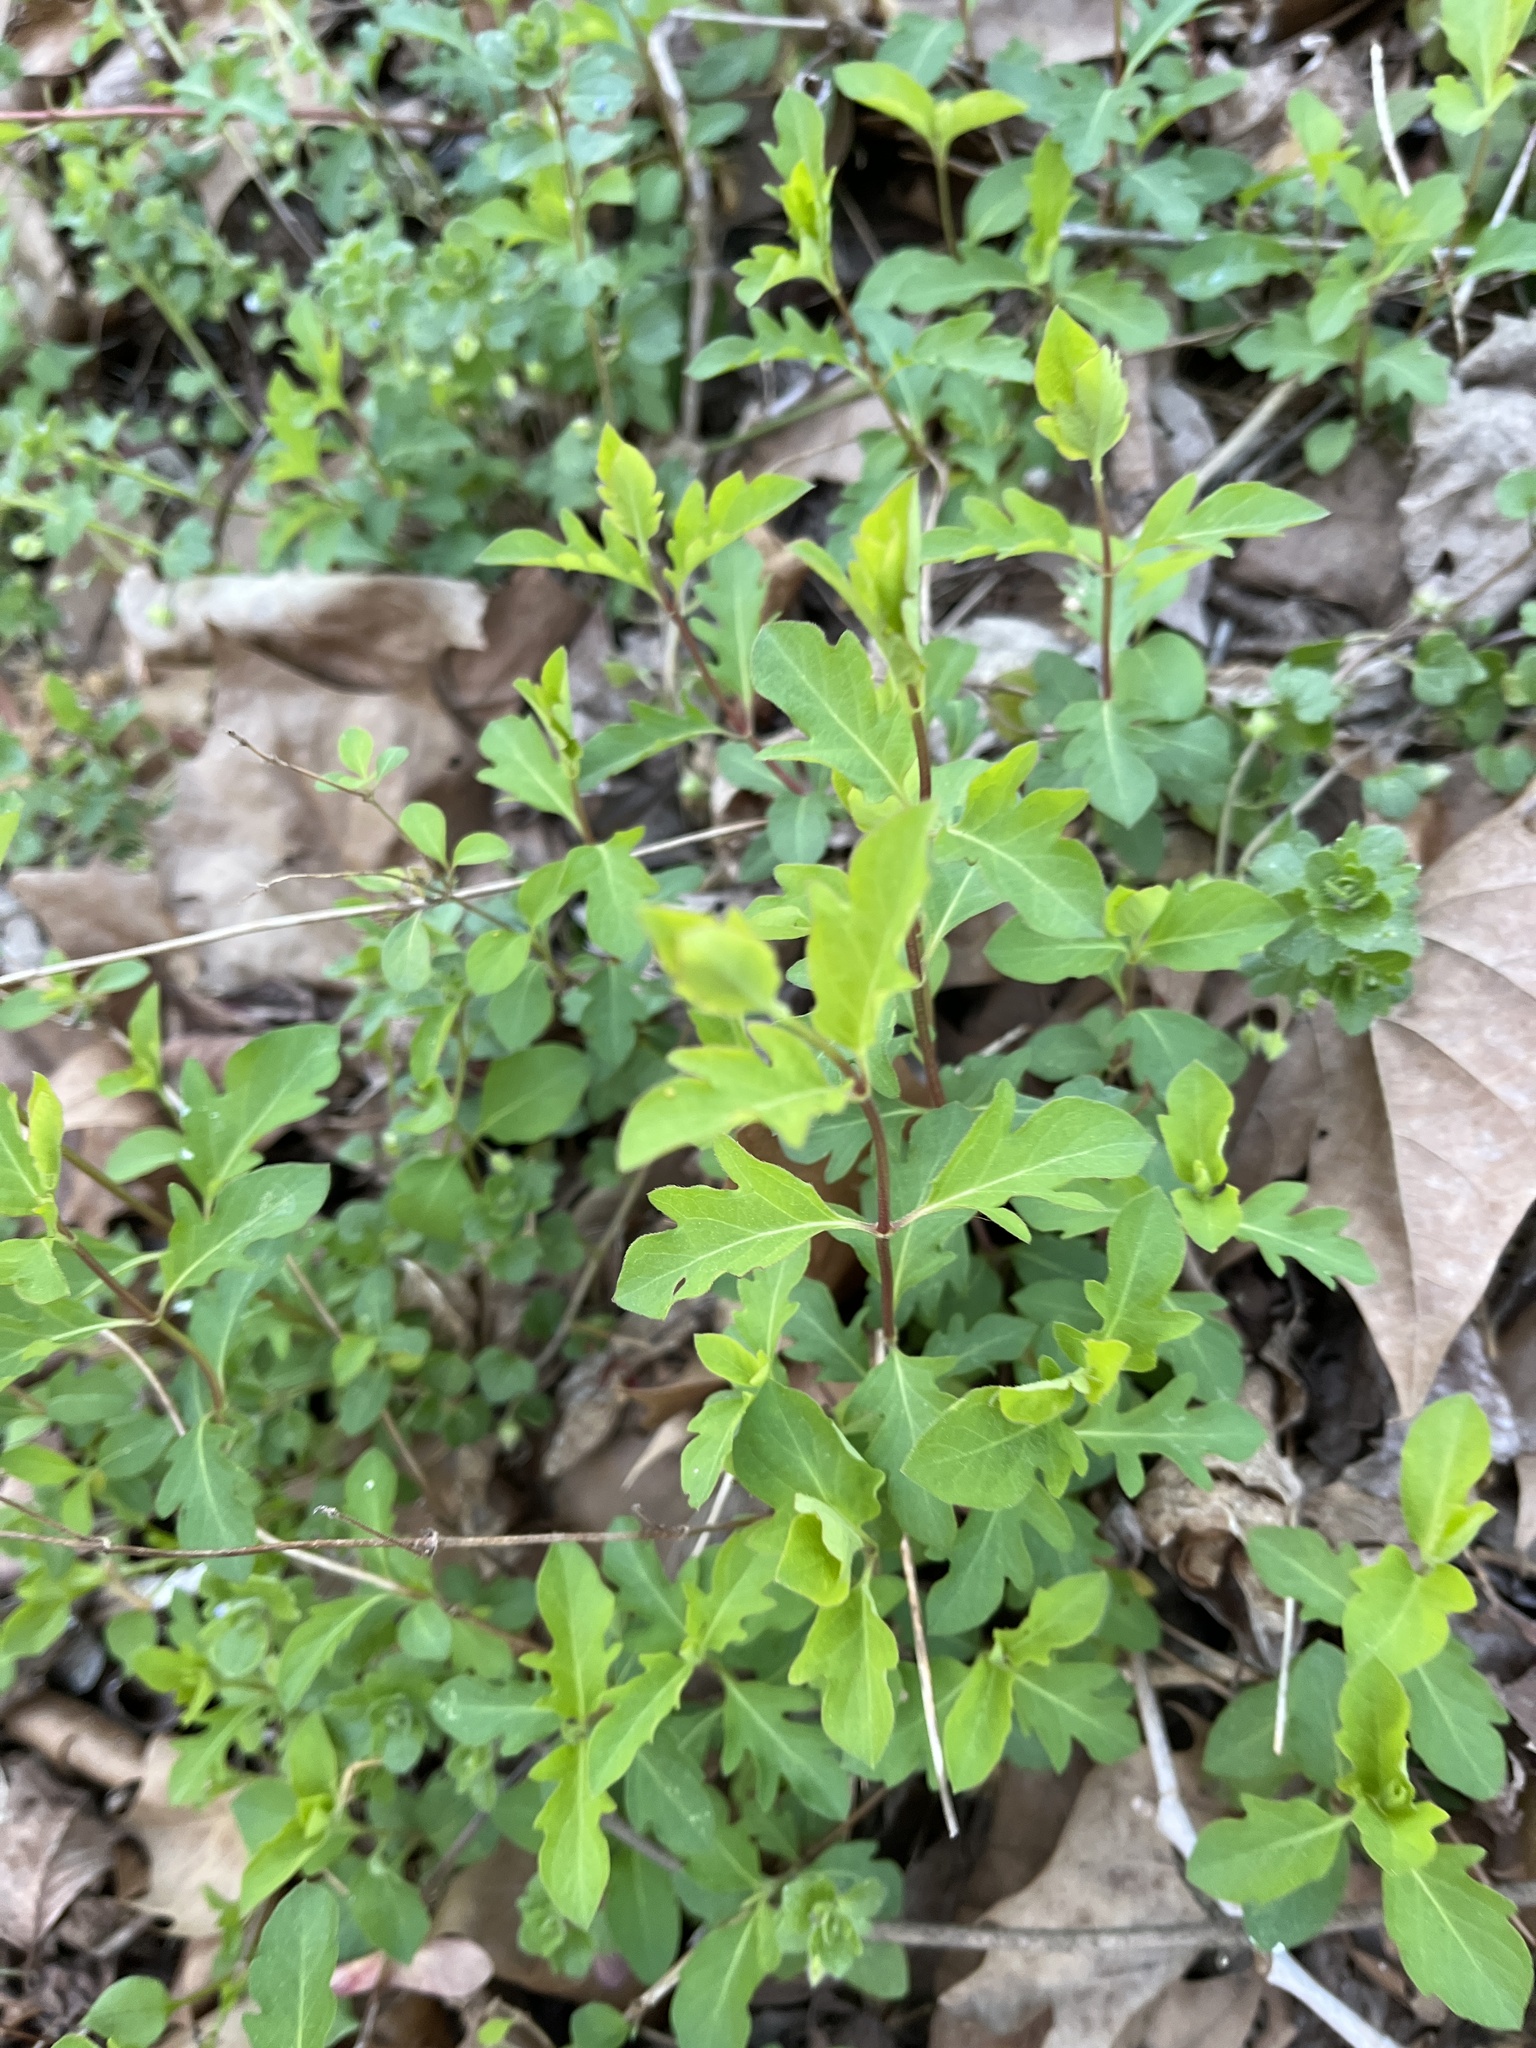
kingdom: Plantae
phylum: Tracheophyta
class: Magnoliopsida
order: Dipsacales
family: Caprifoliaceae
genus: Lonicera
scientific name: Lonicera japonica
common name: Japanese honeysuckle
